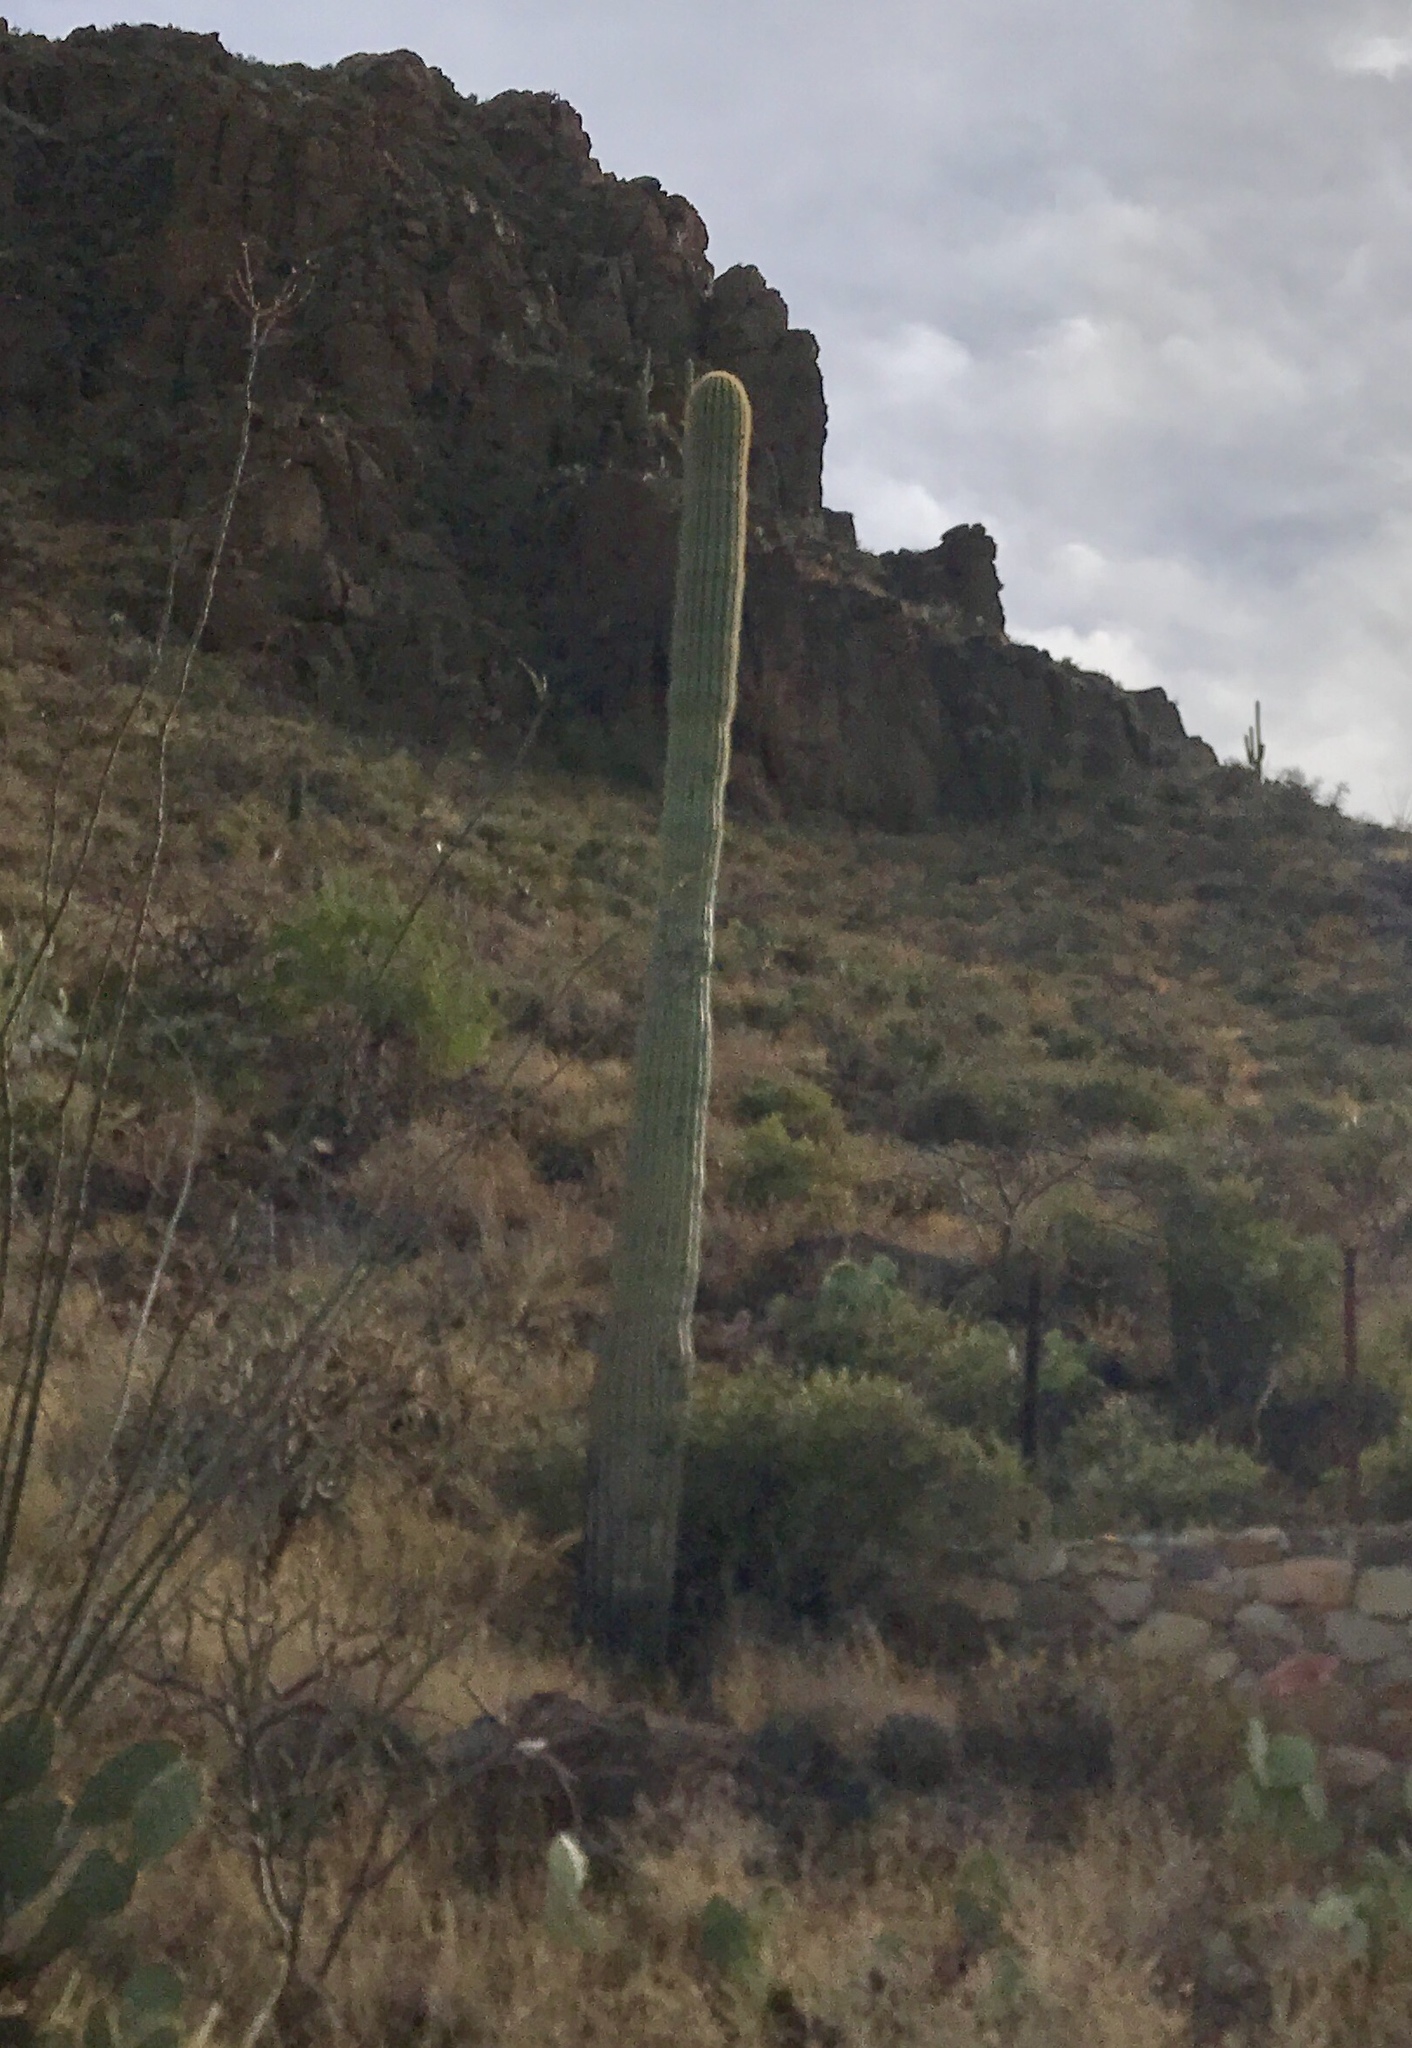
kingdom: Plantae
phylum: Tracheophyta
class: Magnoliopsida
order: Caryophyllales
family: Cactaceae
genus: Carnegiea
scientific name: Carnegiea gigantea
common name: Saguaro
